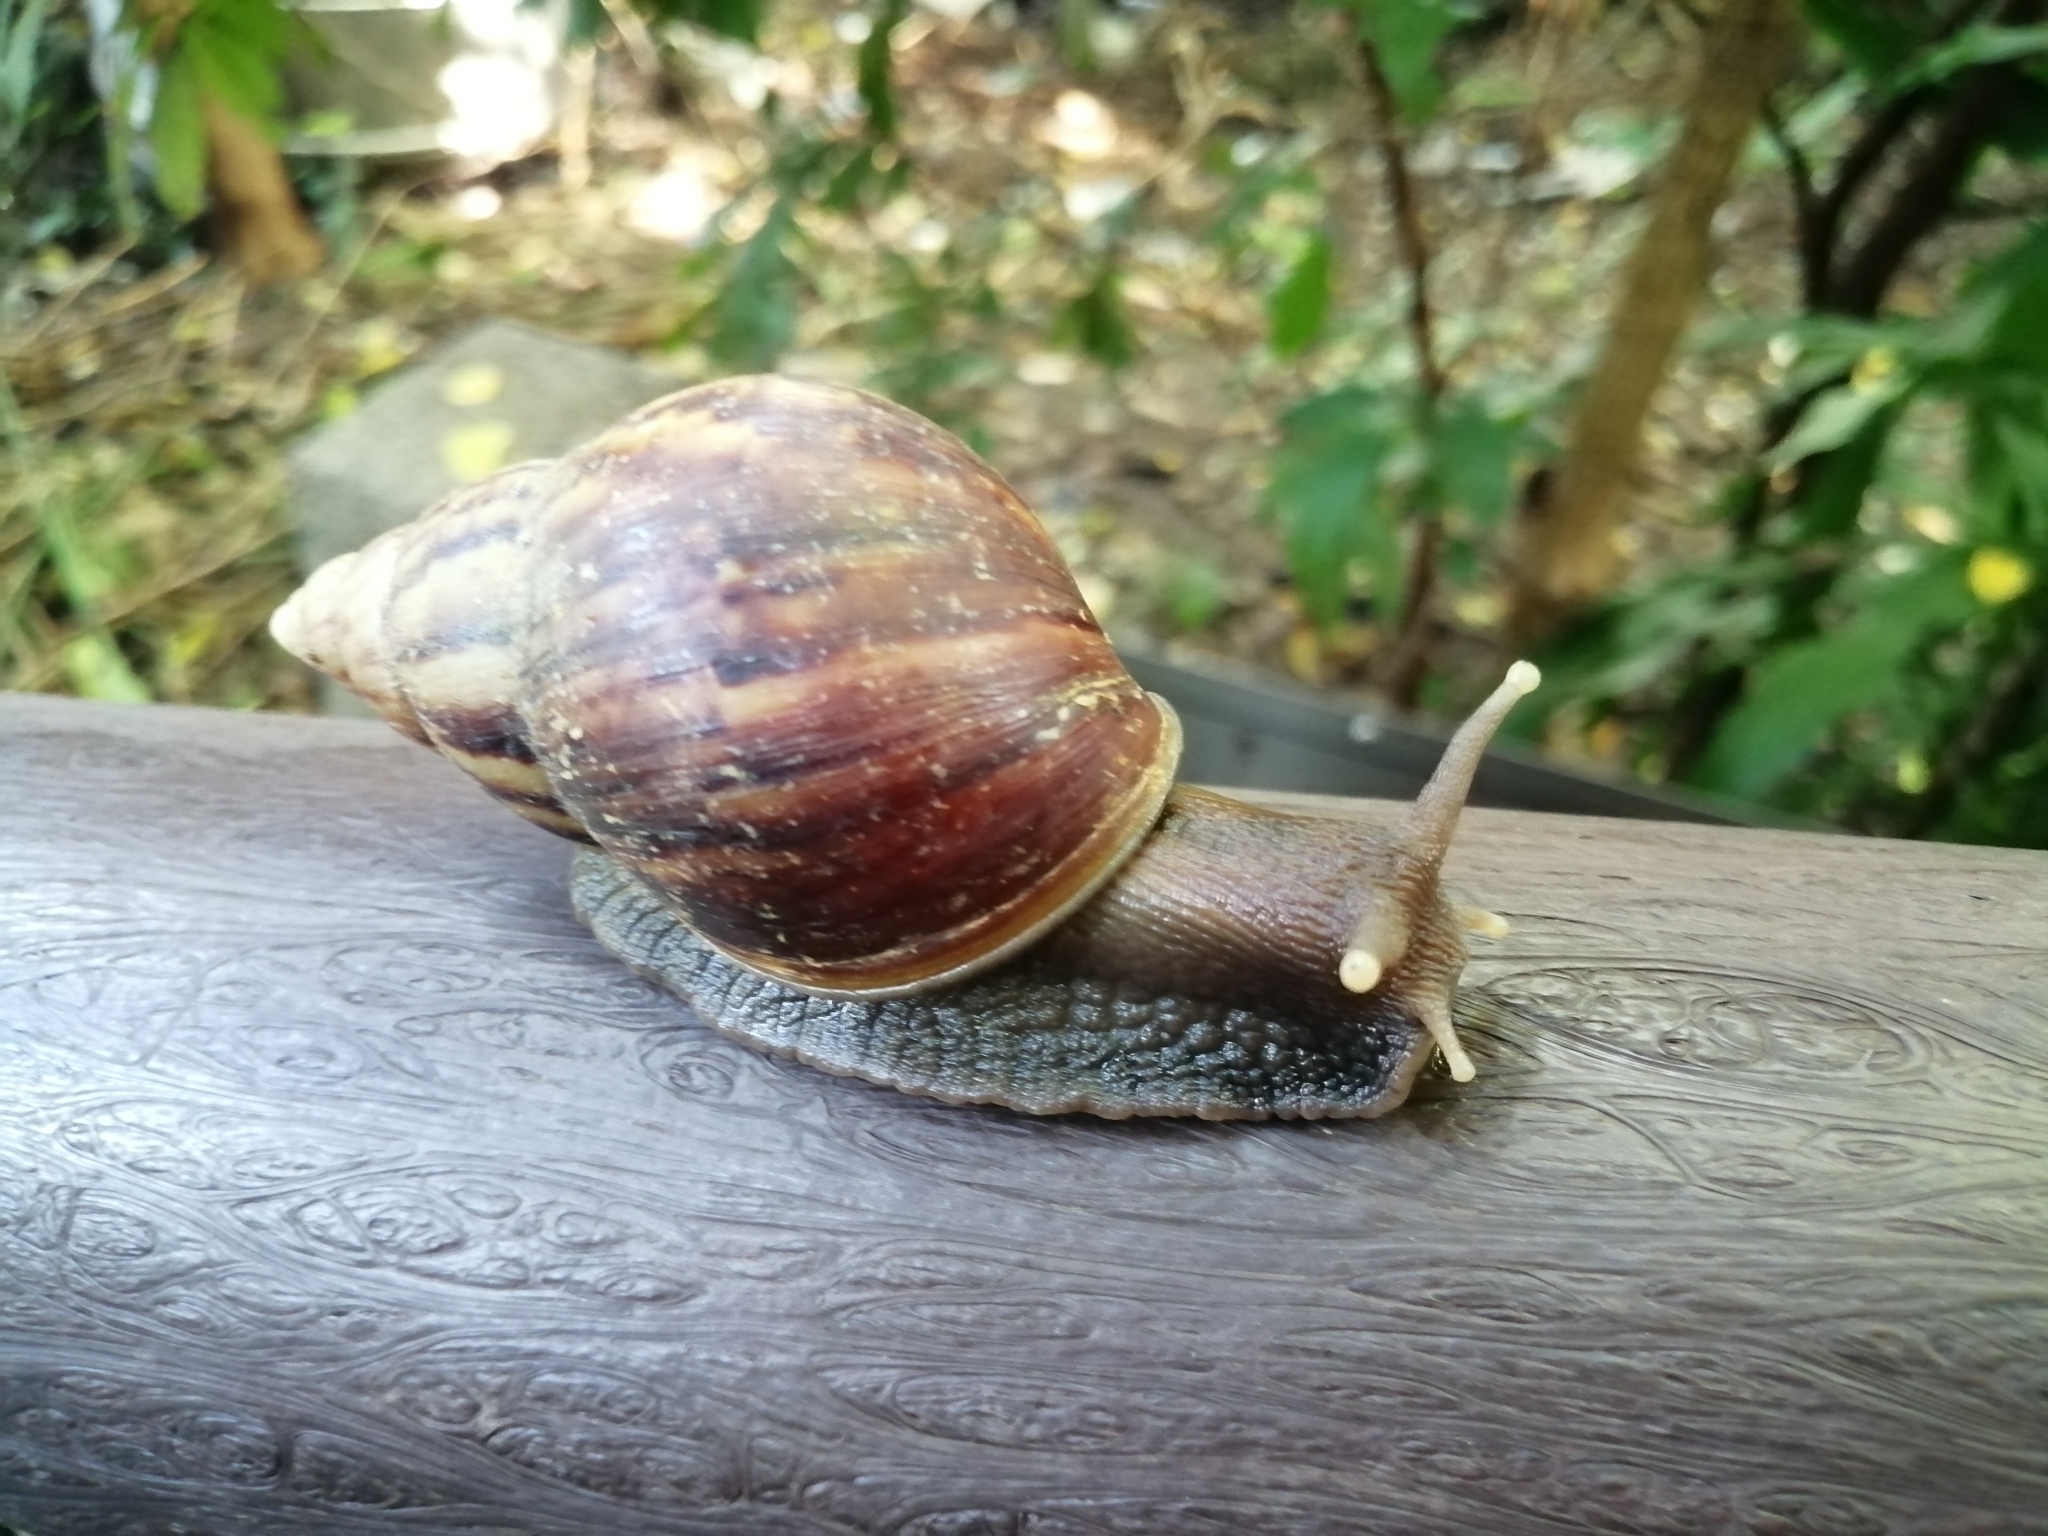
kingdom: Animalia
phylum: Mollusca
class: Gastropoda
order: Stylommatophora
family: Achatinidae
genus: Lissachatina
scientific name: Lissachatina fulica
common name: Giant african snail
